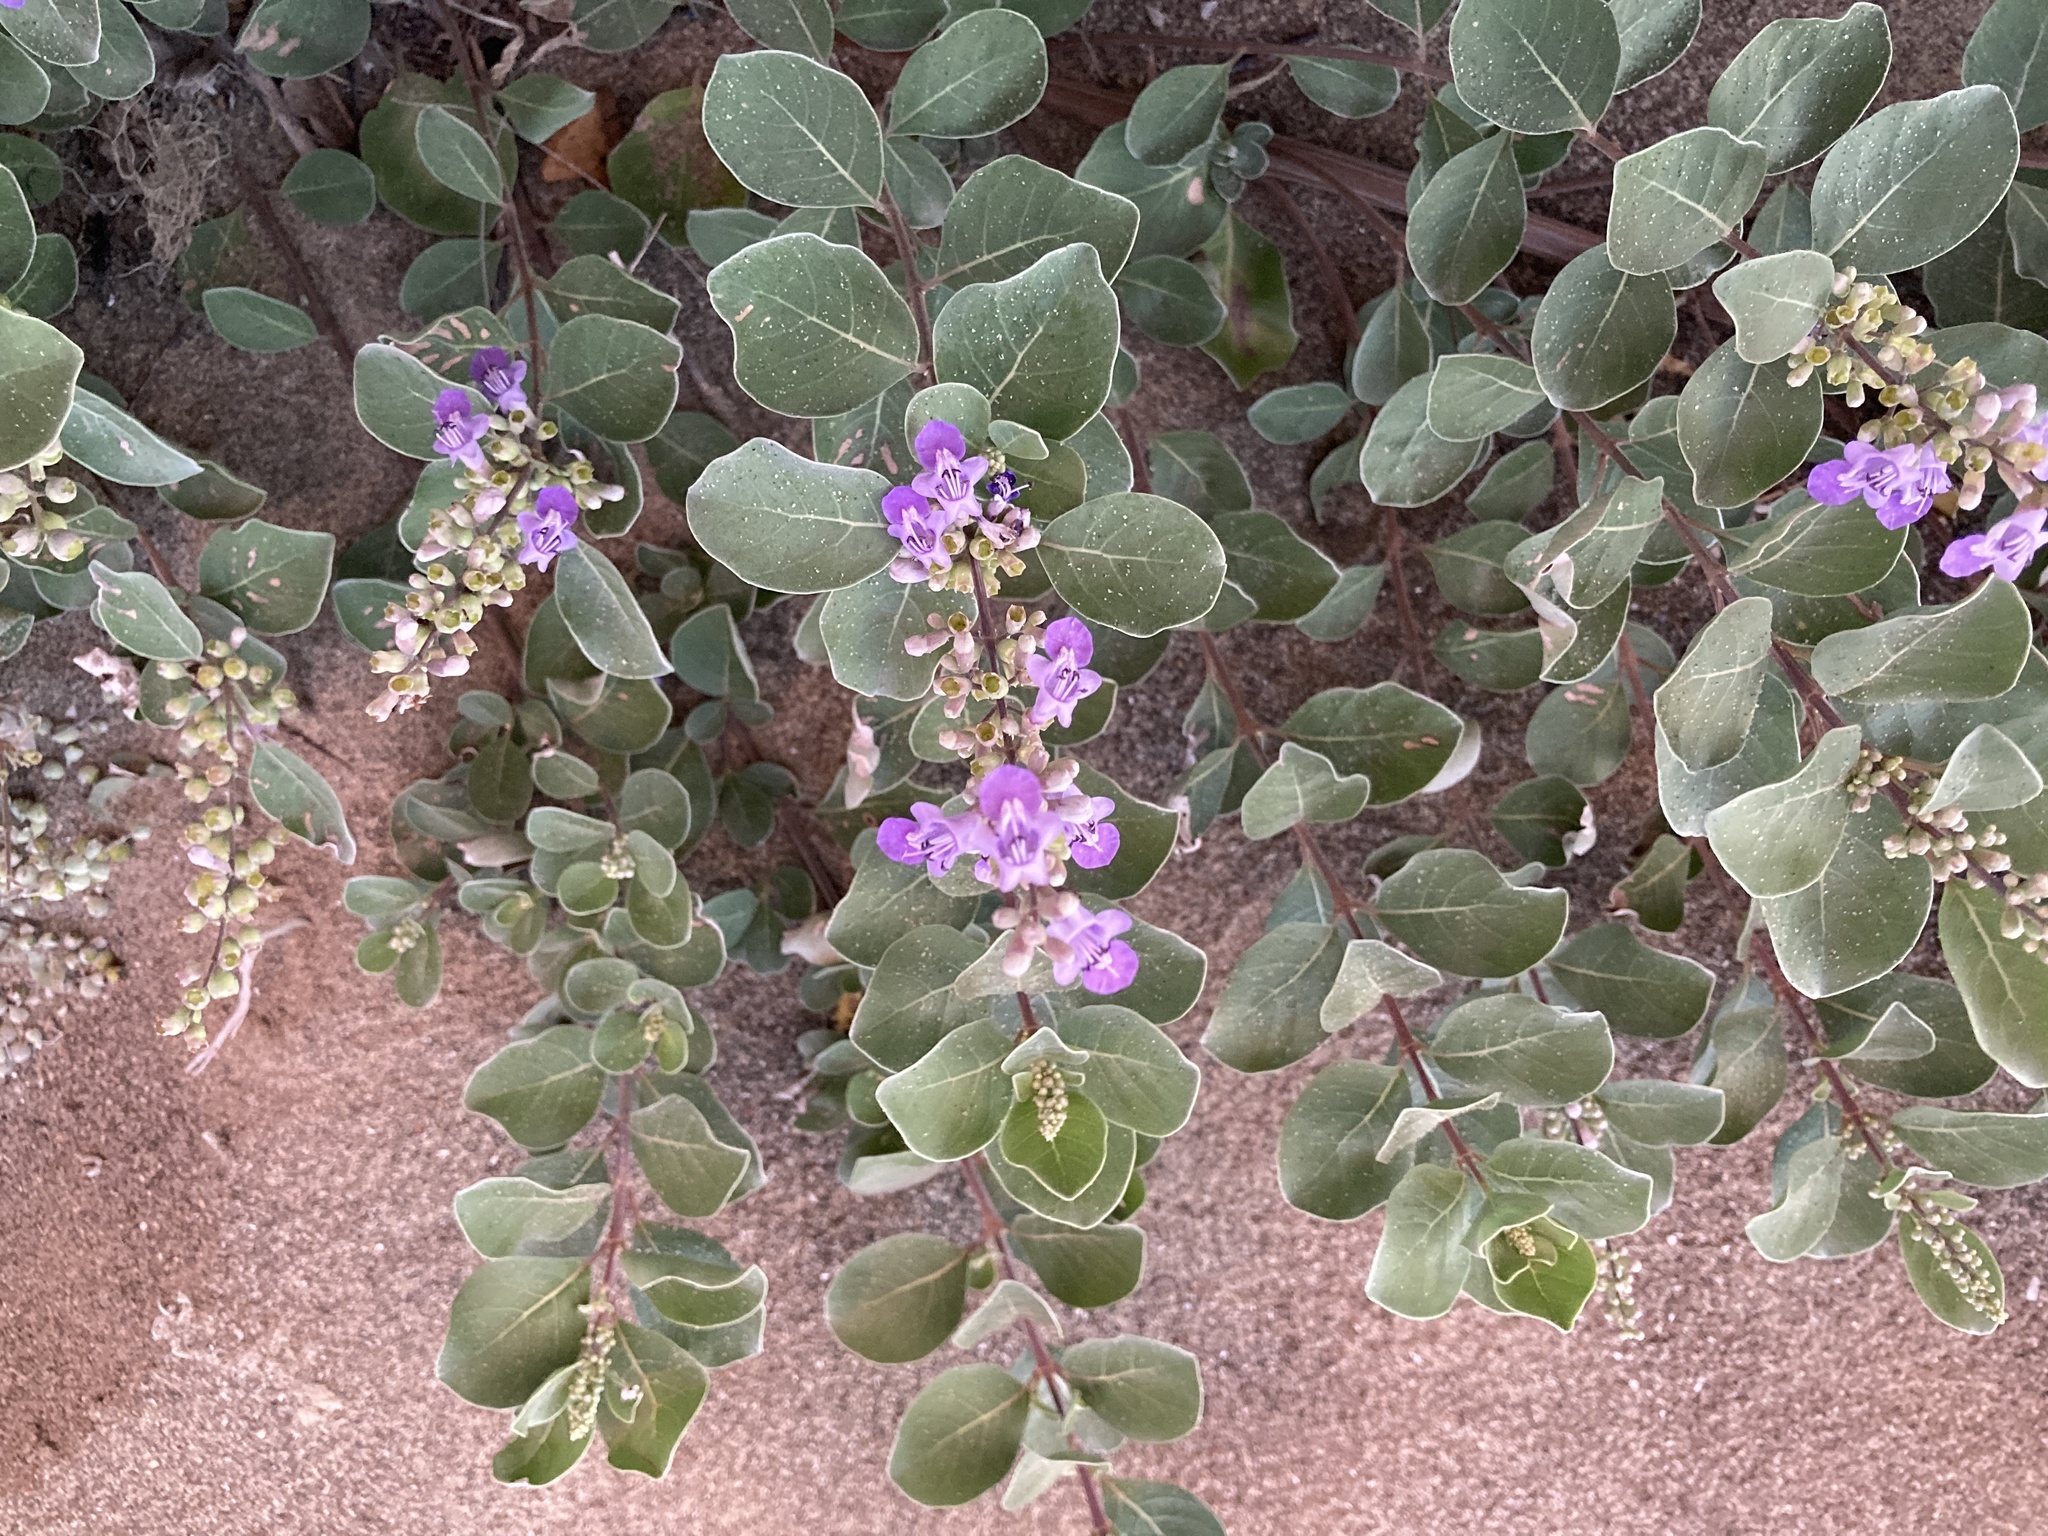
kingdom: Plantae
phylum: Tracheophyta
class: Magnoliopsida
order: Lamiales
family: Lamiaceae
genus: Vitex
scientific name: Vitex rotundifolia
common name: Beach vitex
